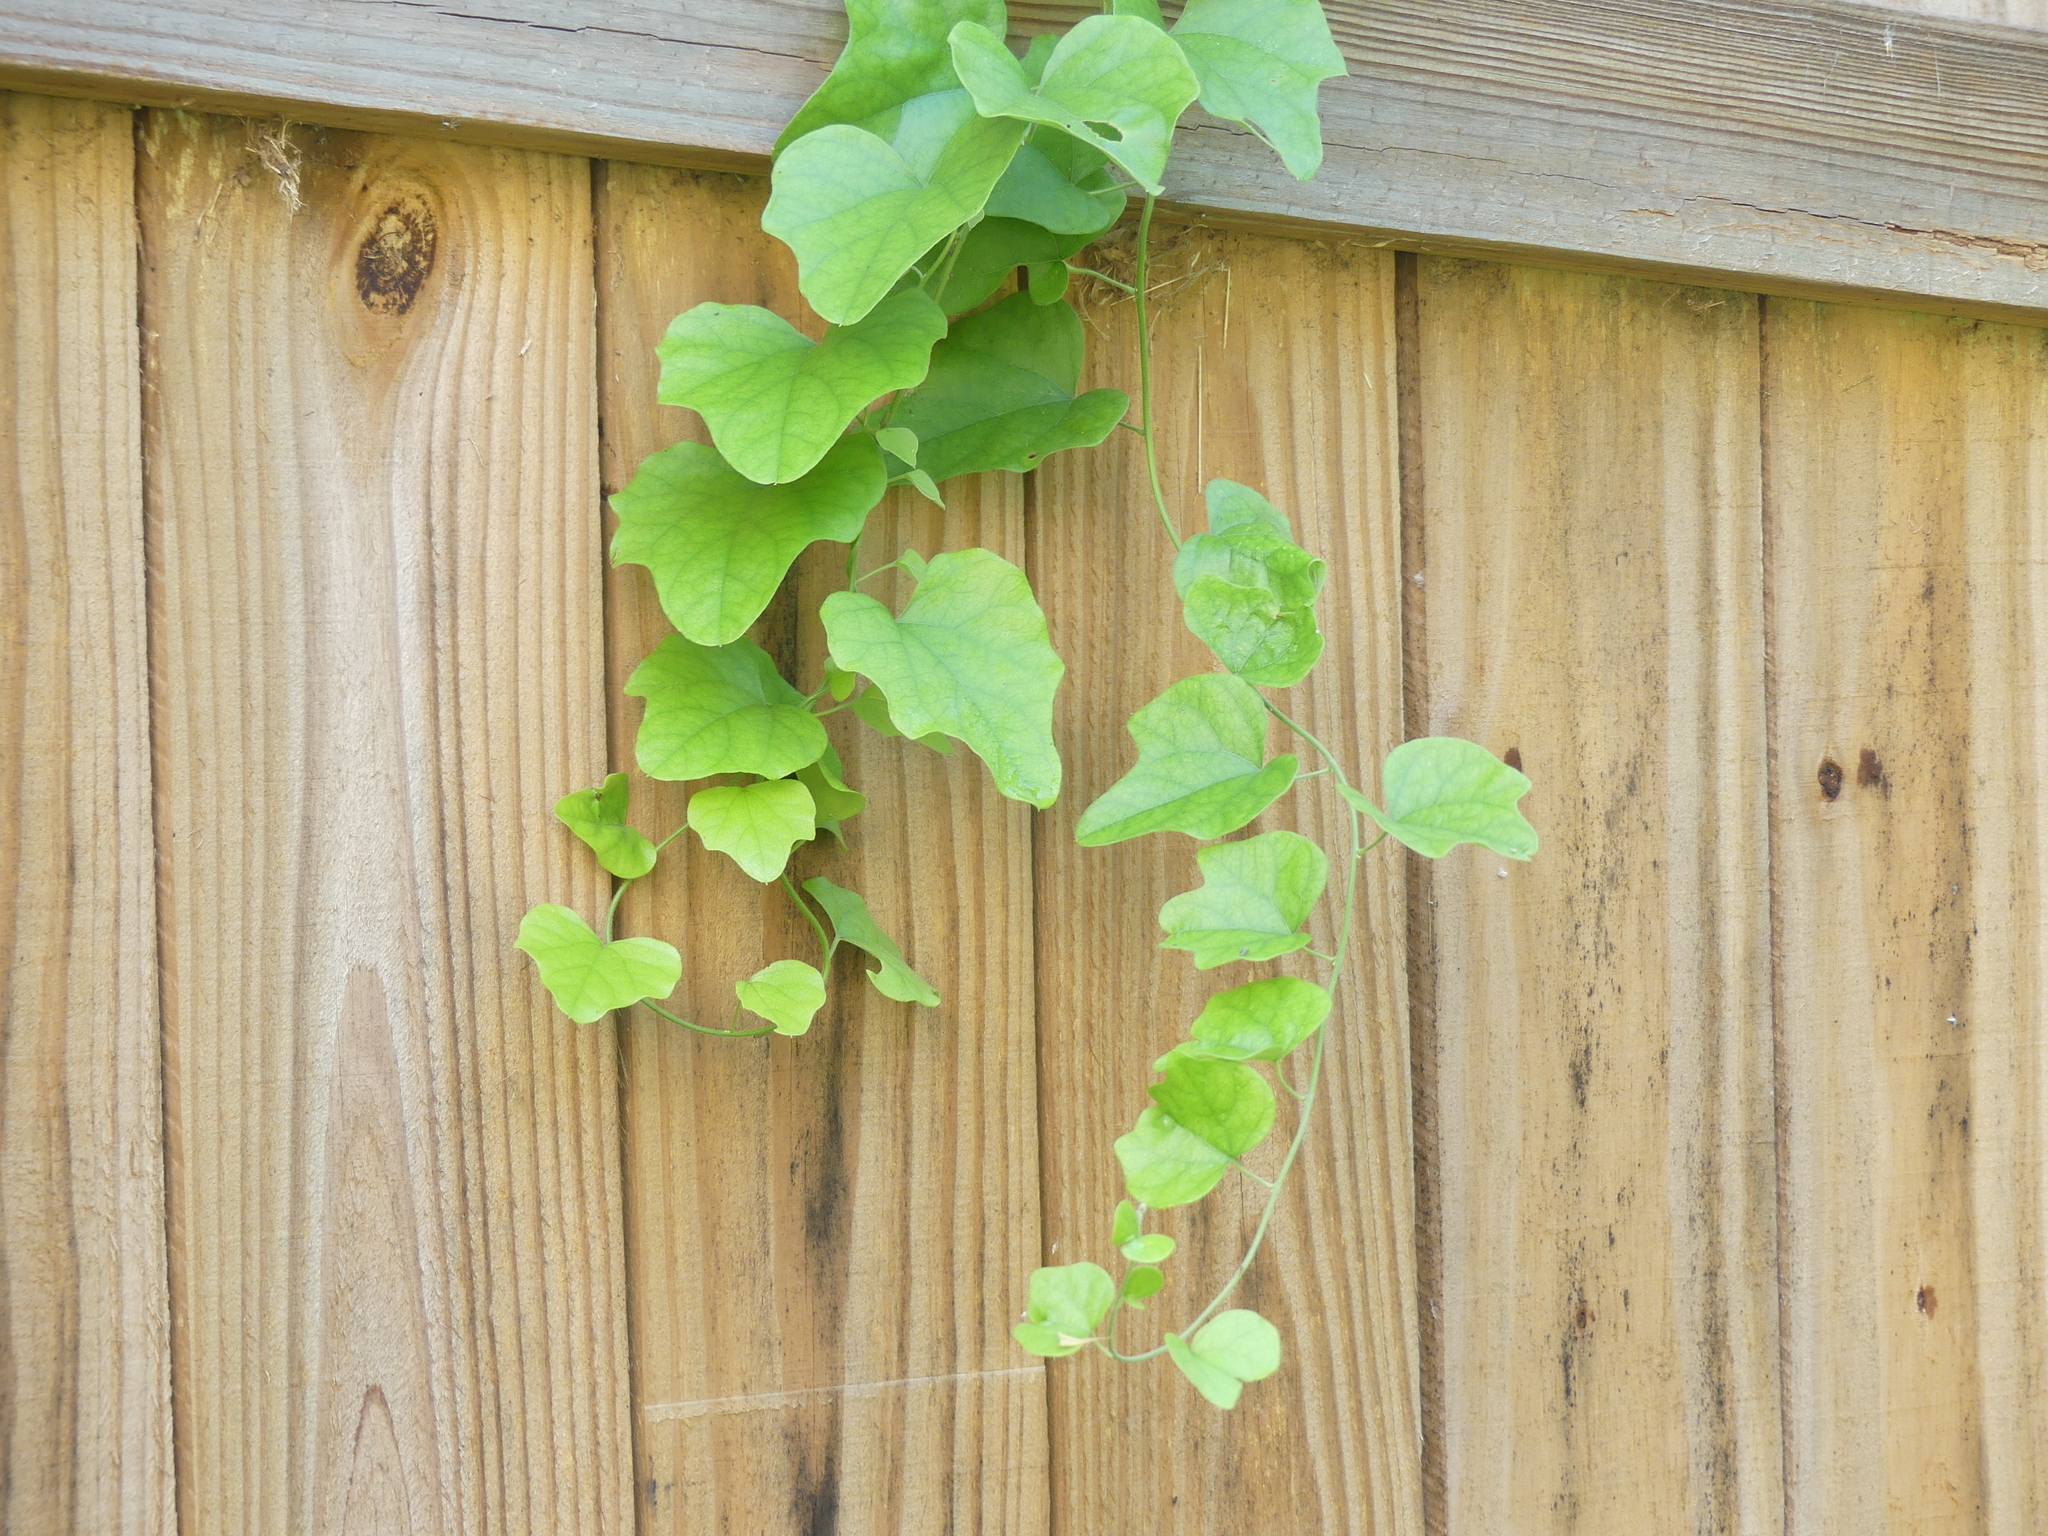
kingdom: Plantae
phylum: Tracheophyta
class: Magnoliopsida
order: Ranunculales
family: Menispermaceae
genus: Cocculus
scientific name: Cocculus carolinus
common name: Carolina moonseed
